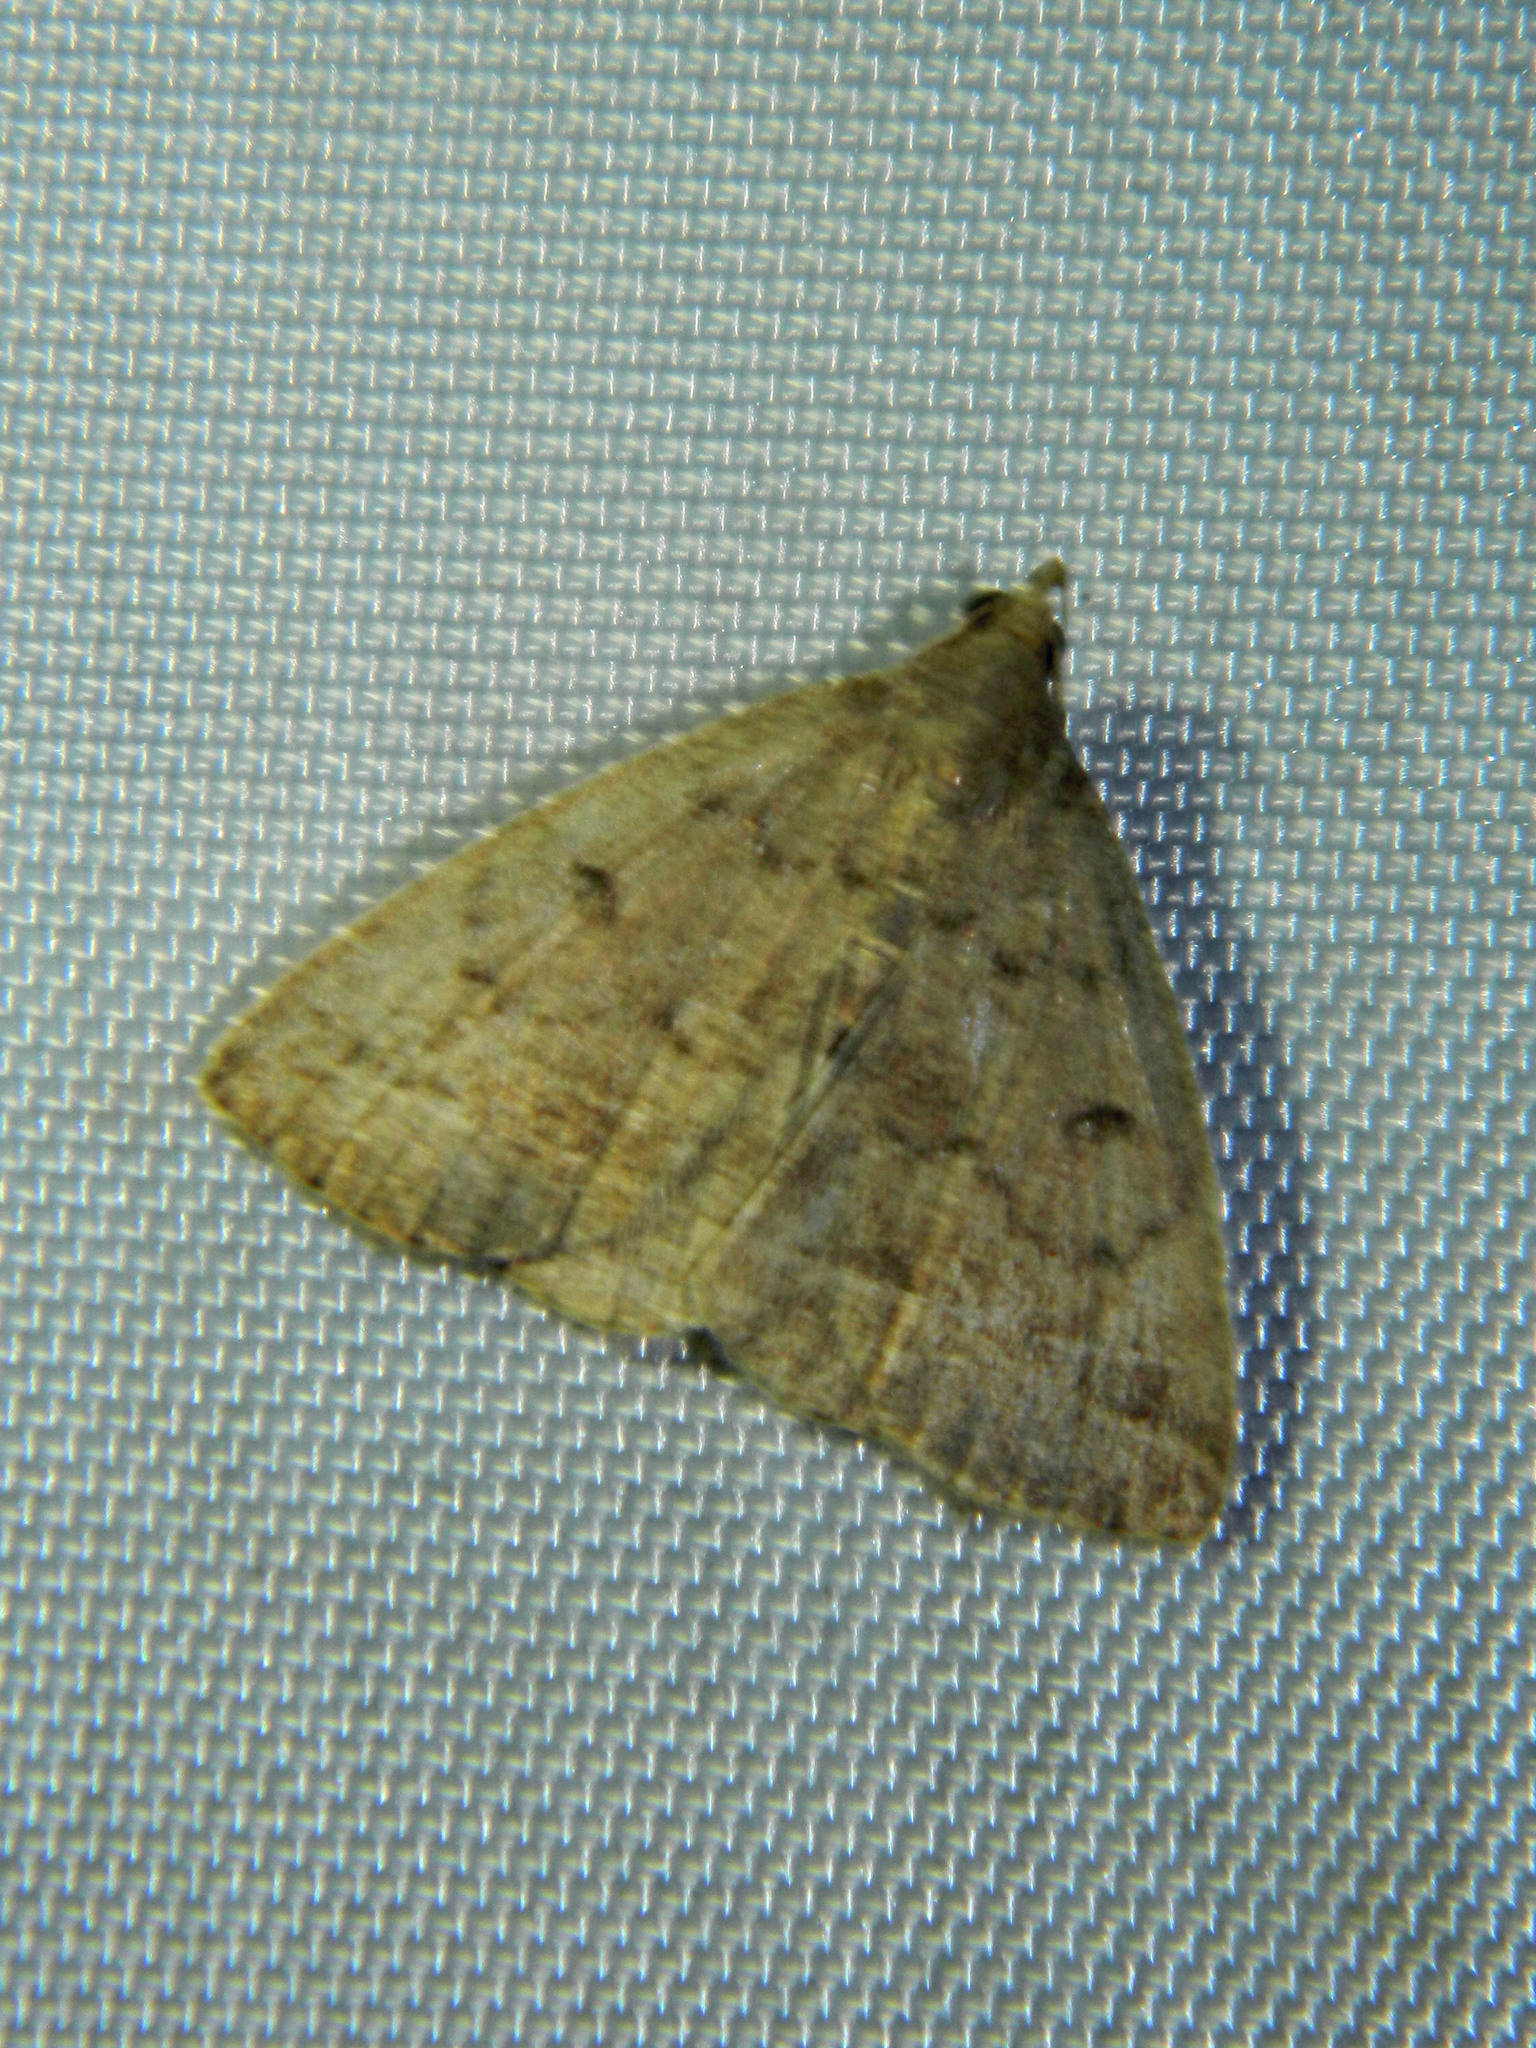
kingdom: Animalia
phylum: Arthropoda
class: Insecta
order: Lepidoptera
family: Erebidae
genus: Zanclognatha
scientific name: Zanclognatha jacchusalis
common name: Yellowish zanclognatha
